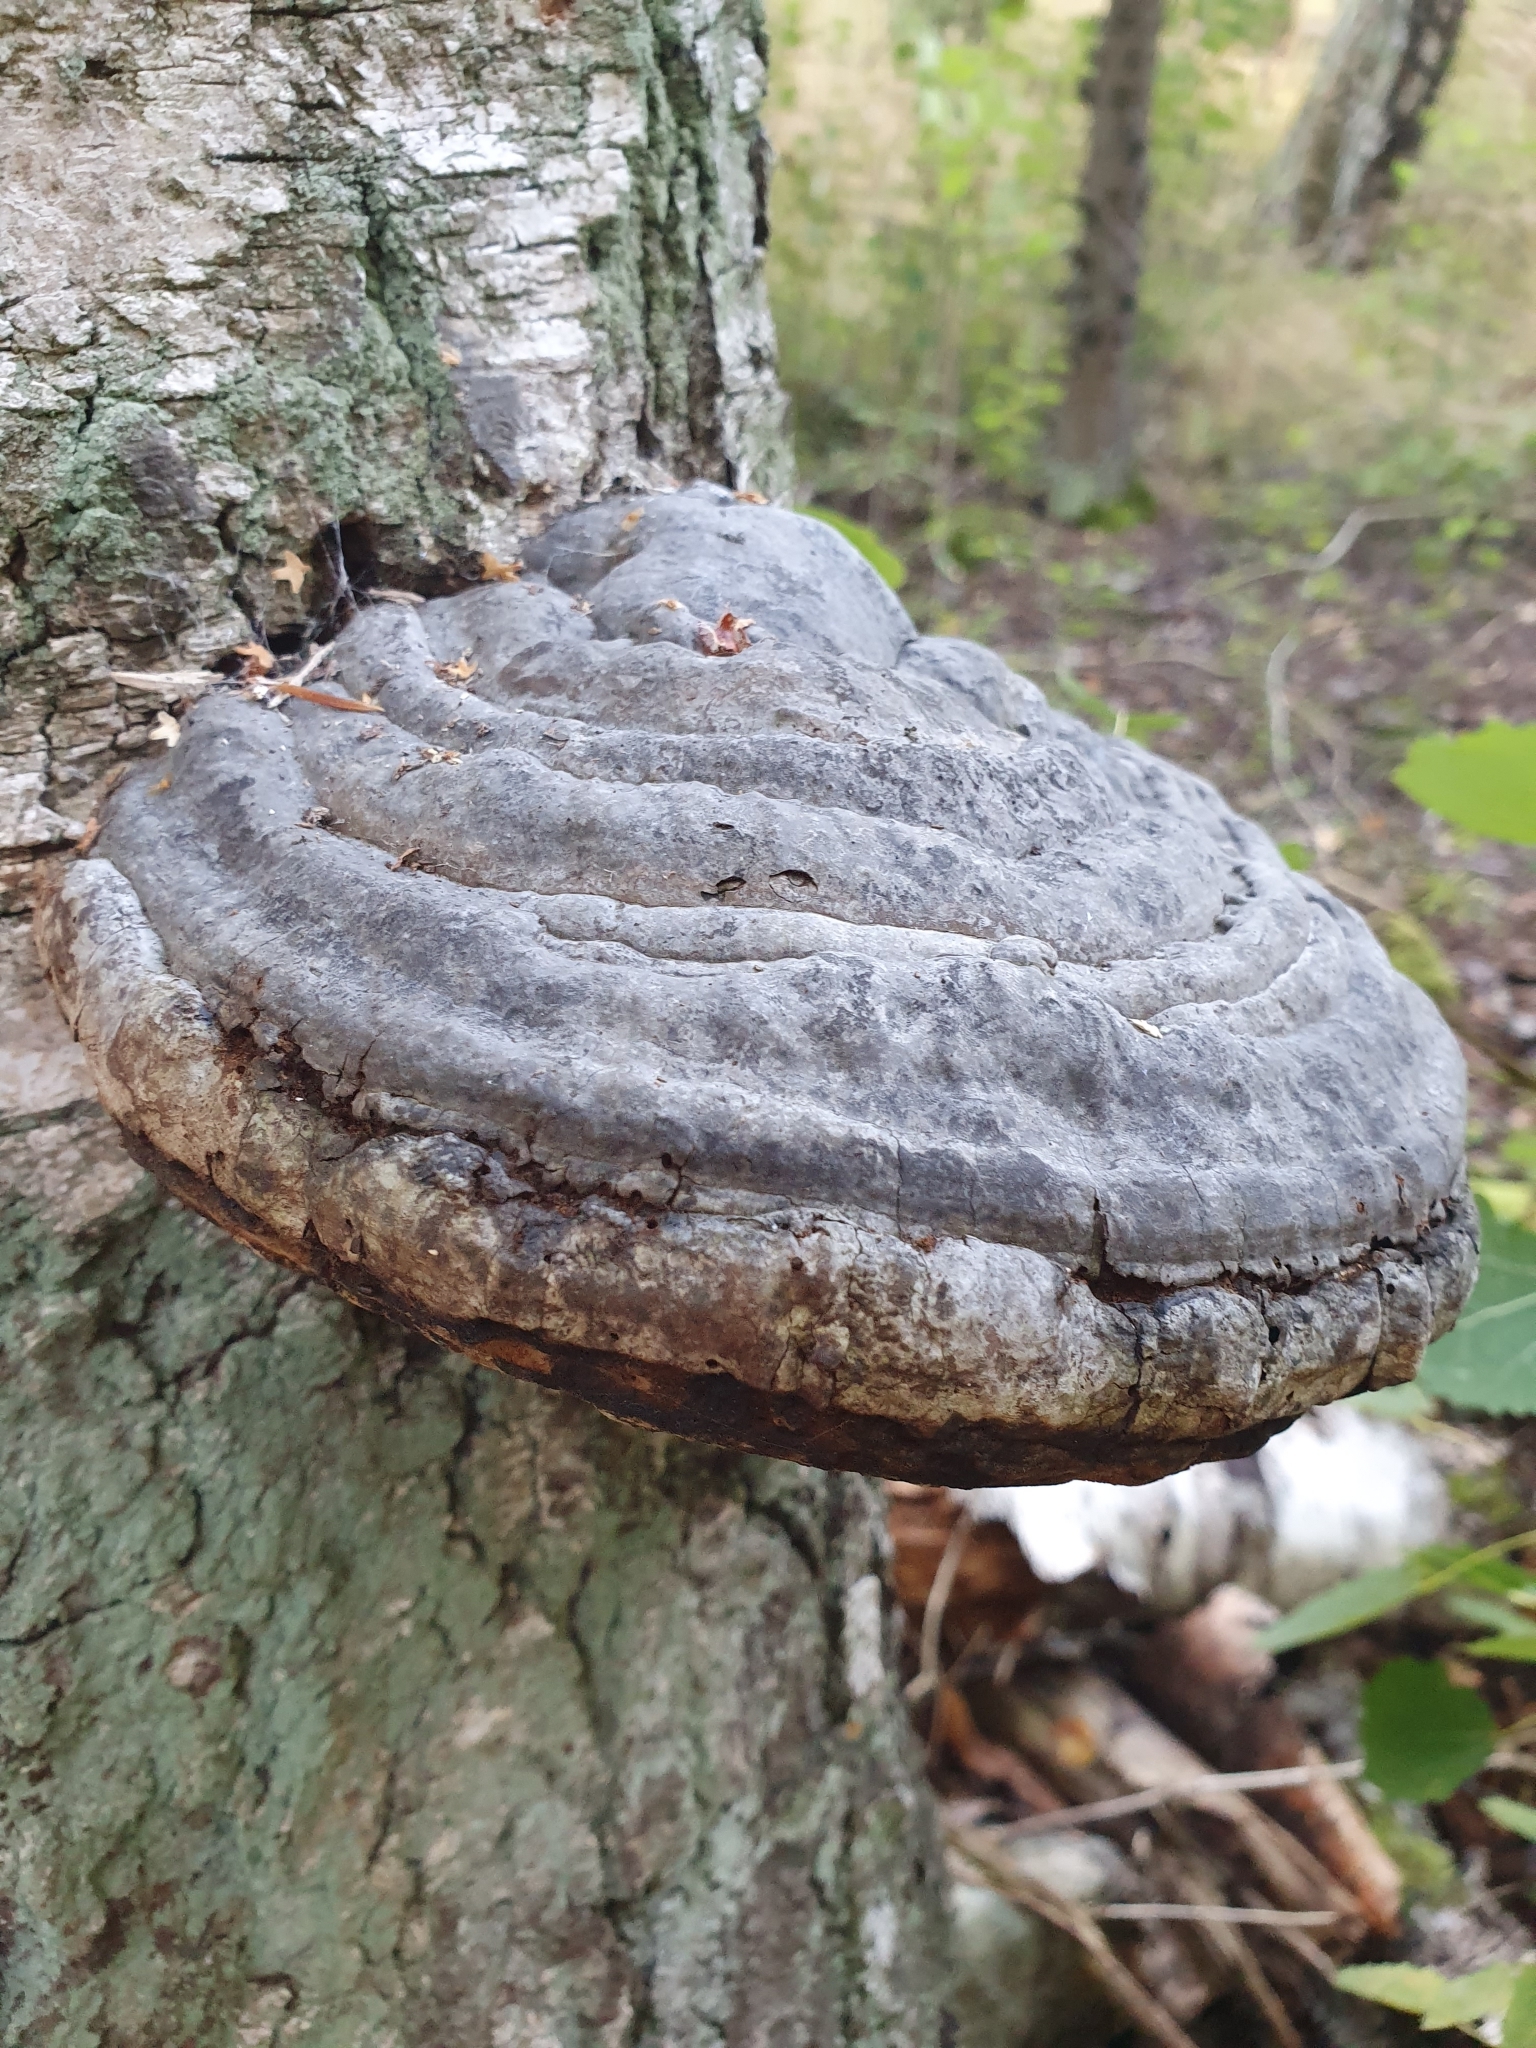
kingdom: Fungi
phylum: Basidiomycota
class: Agaricomycetes
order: Polyporales
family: Polyporaceae
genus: Fomes
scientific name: Fomes fomentarius
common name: Hoof fungus
